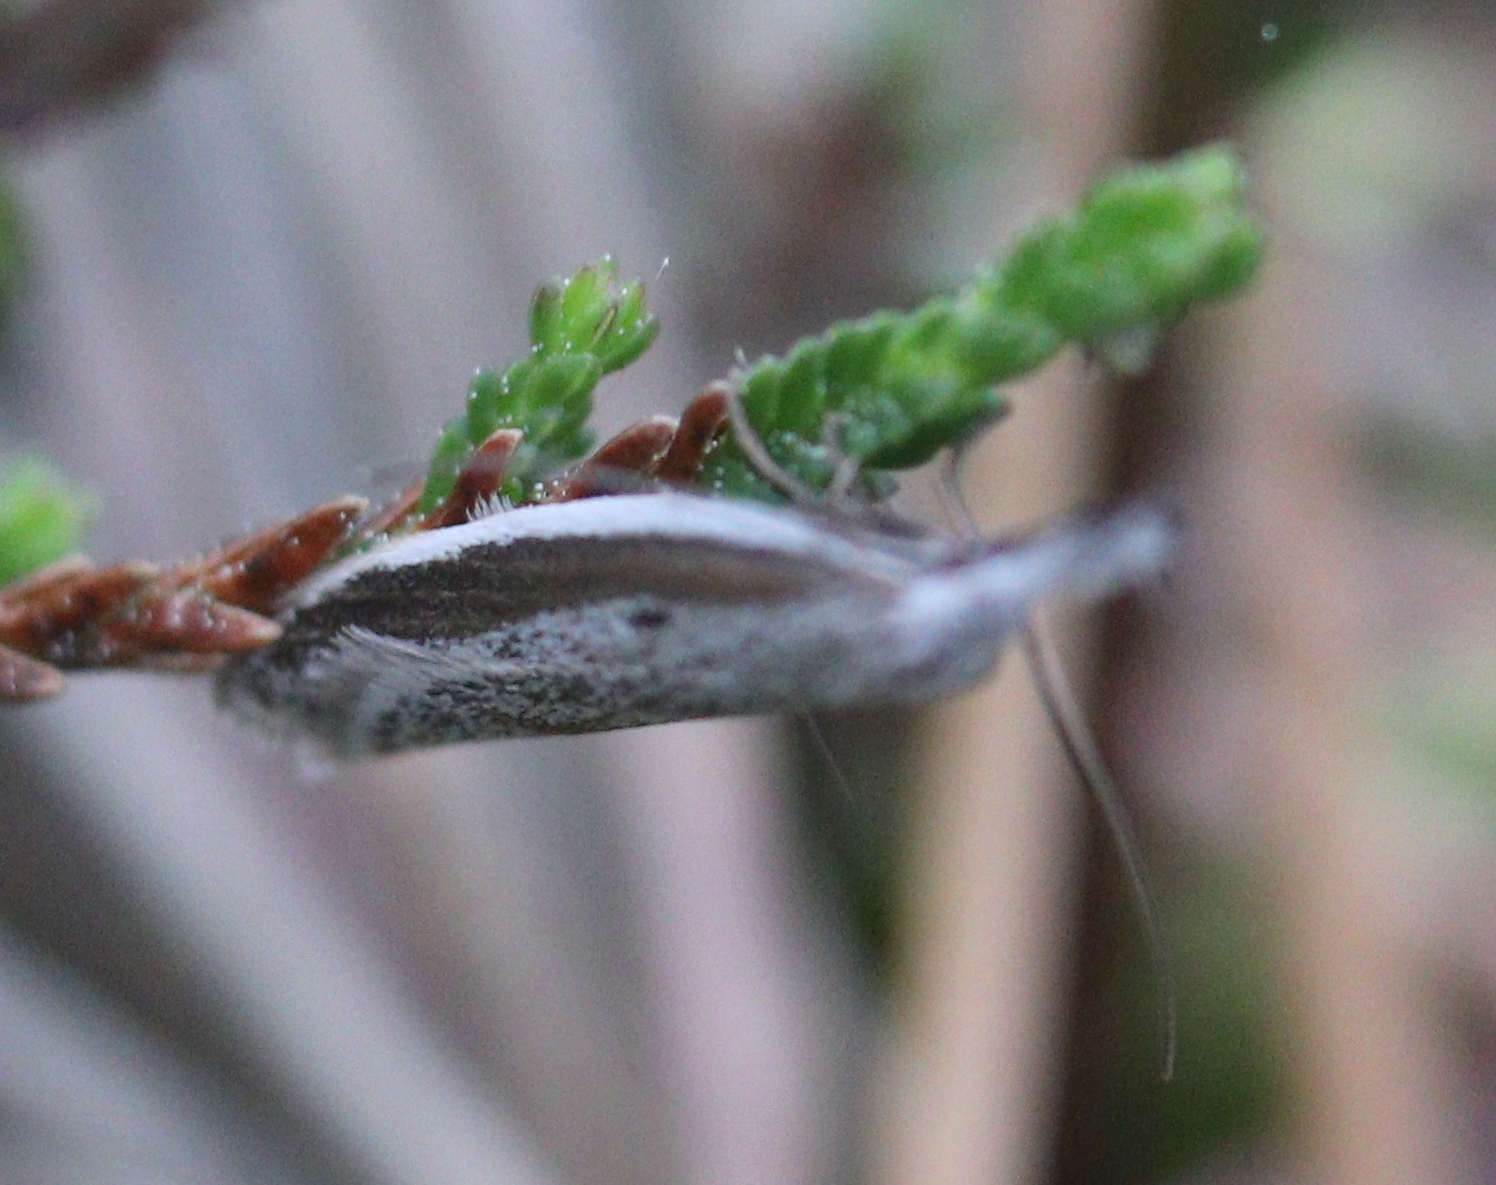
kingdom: Animalia
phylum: Arthropoda
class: Insecta
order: Lepidoptera
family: Oecophoridae
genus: Pleurota
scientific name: Pleurota bicostella
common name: Light streak
